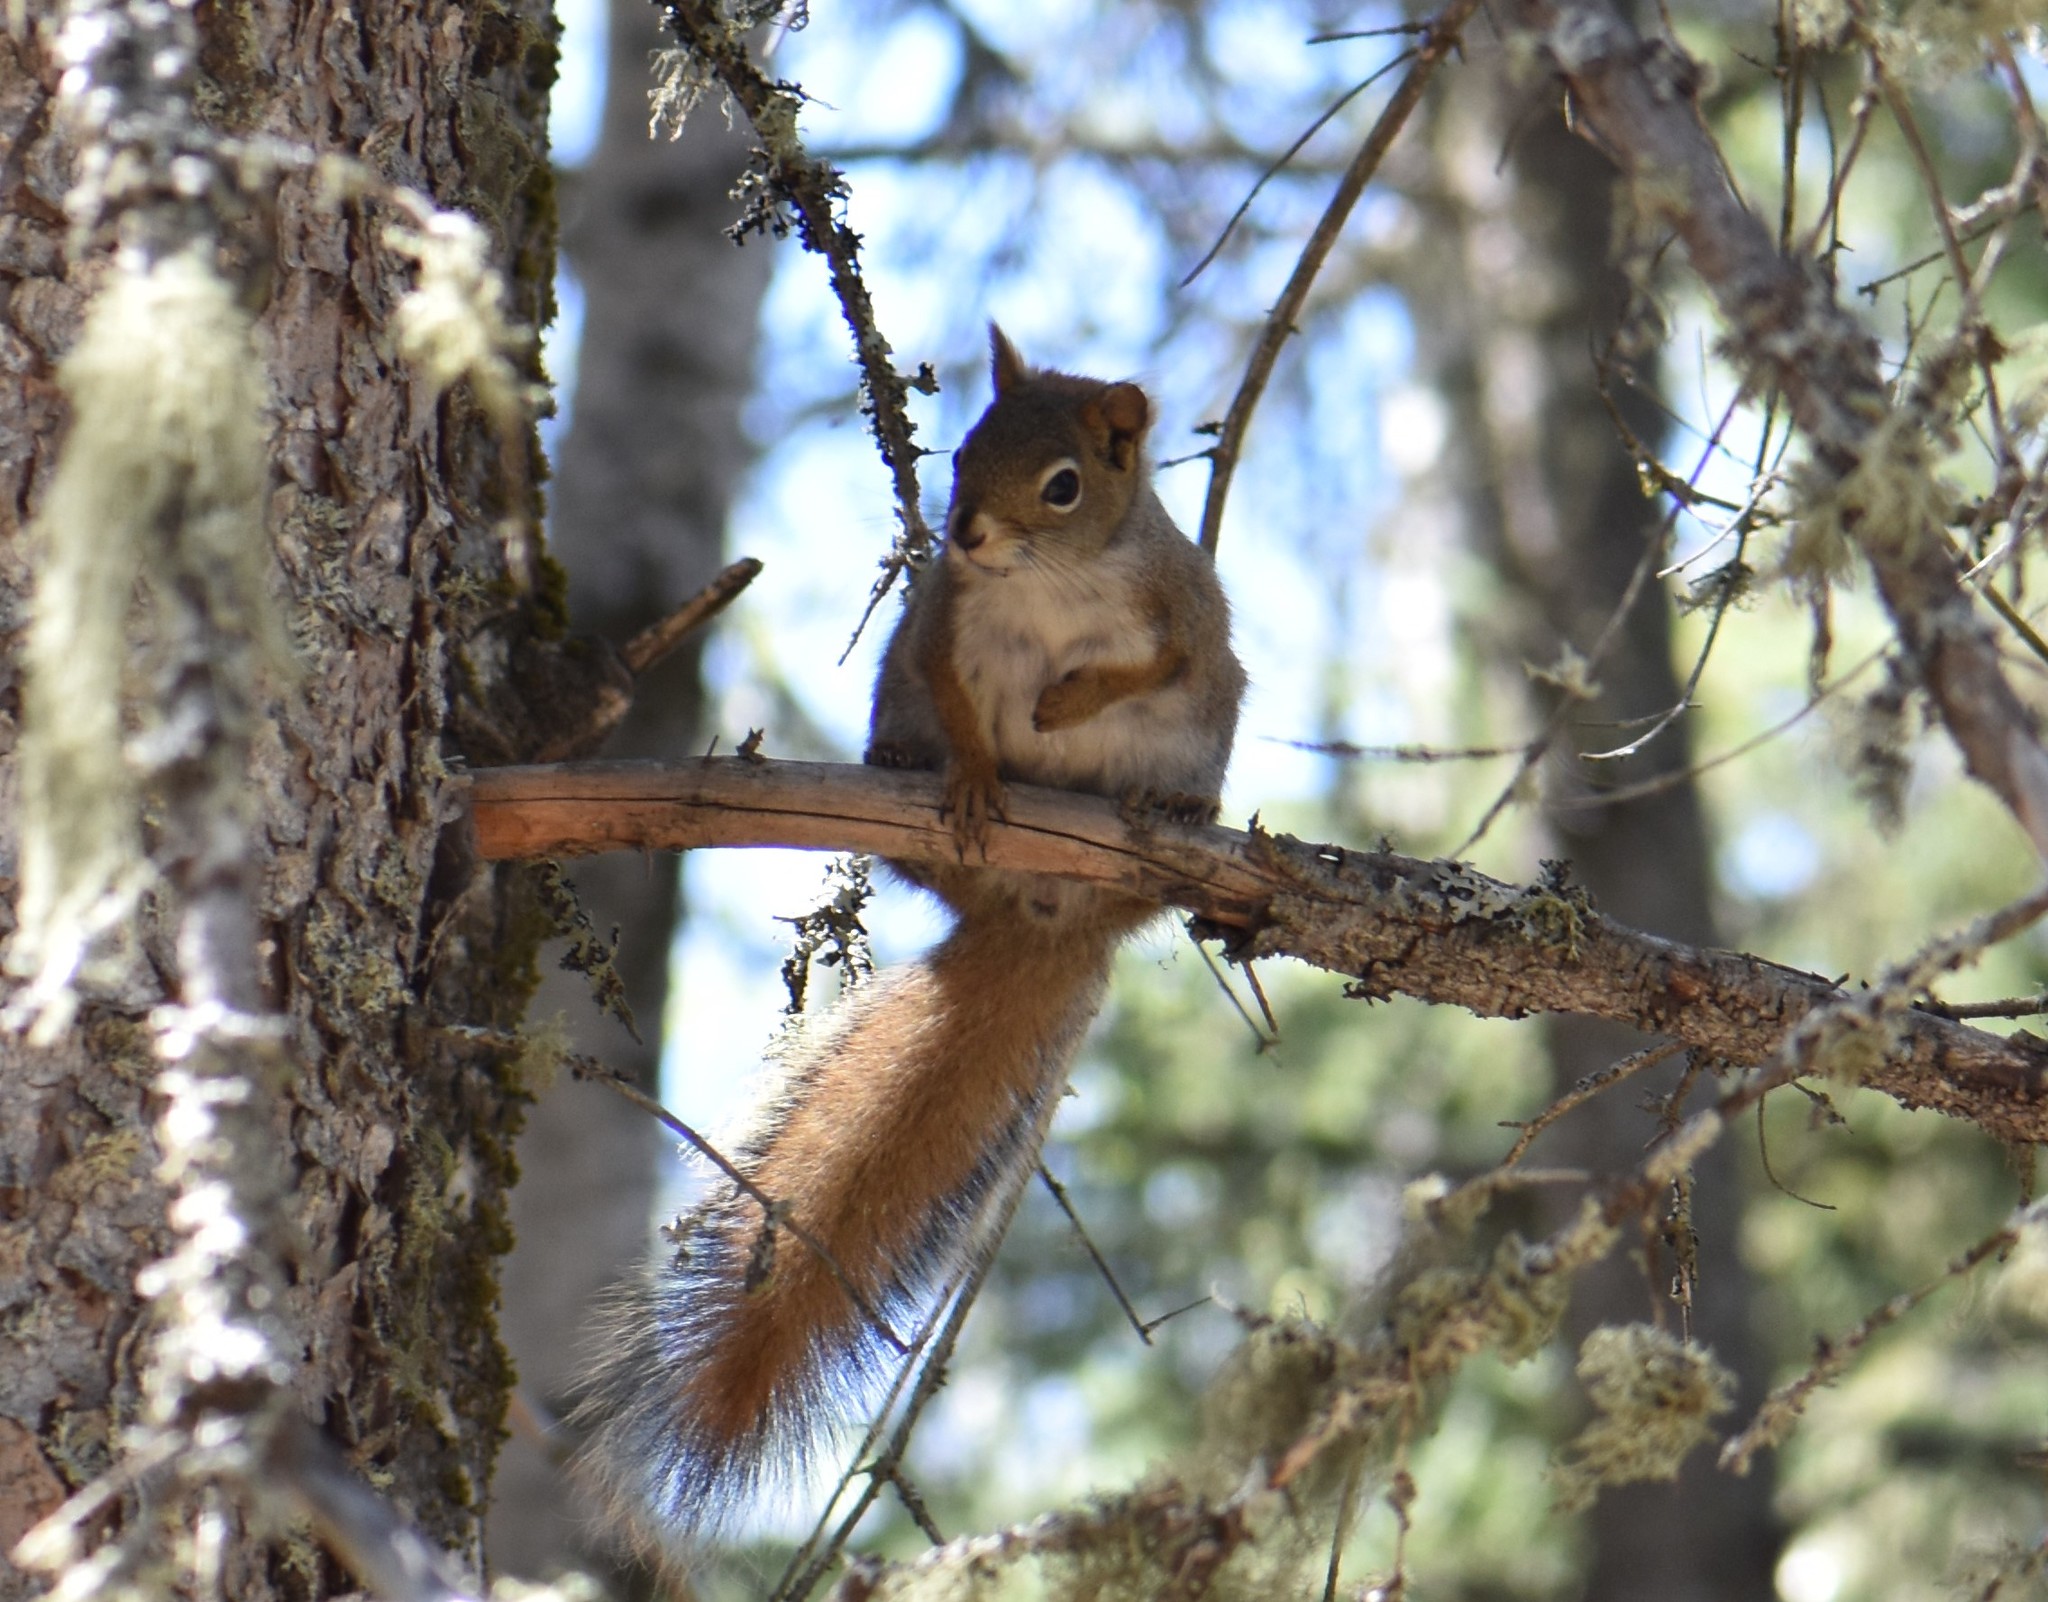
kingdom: Animalia
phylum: Chordata
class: Mammalia
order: Rodentia
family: Sciuridae
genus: Tamiasciurus
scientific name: Tamiasciurus hudsonicus
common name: Red squirrel
